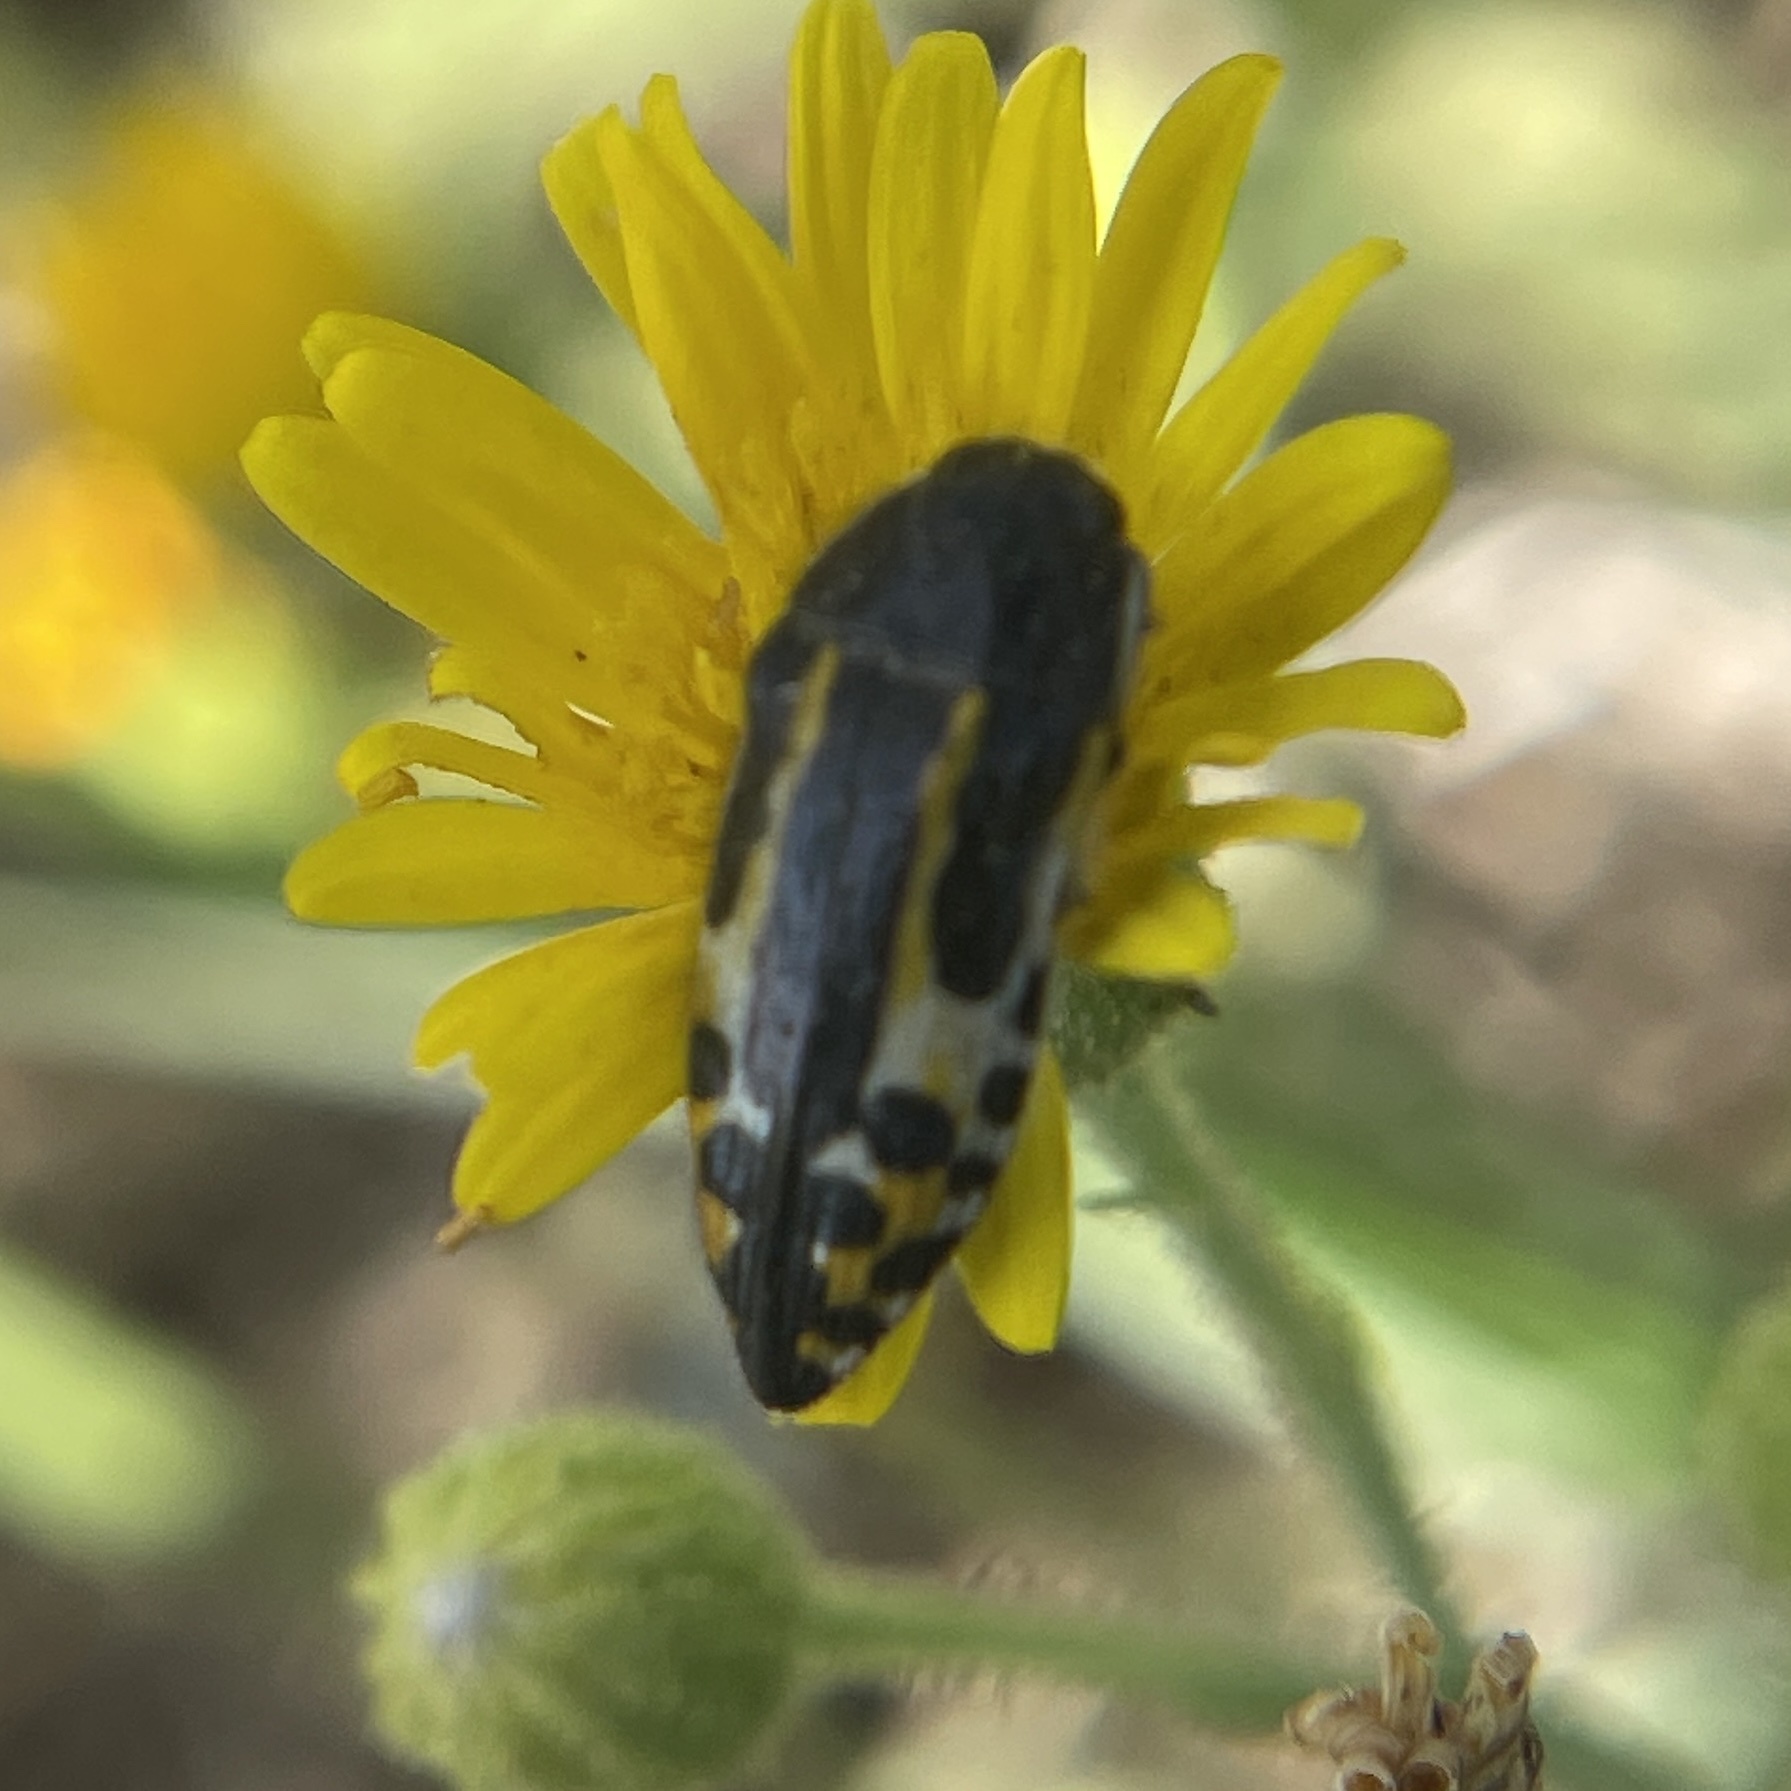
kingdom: Animalia
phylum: Arthropoda
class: Insecta
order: Coleoptera
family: Buprestidae
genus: Acmaeodera
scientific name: Acmaeodera scalaris
